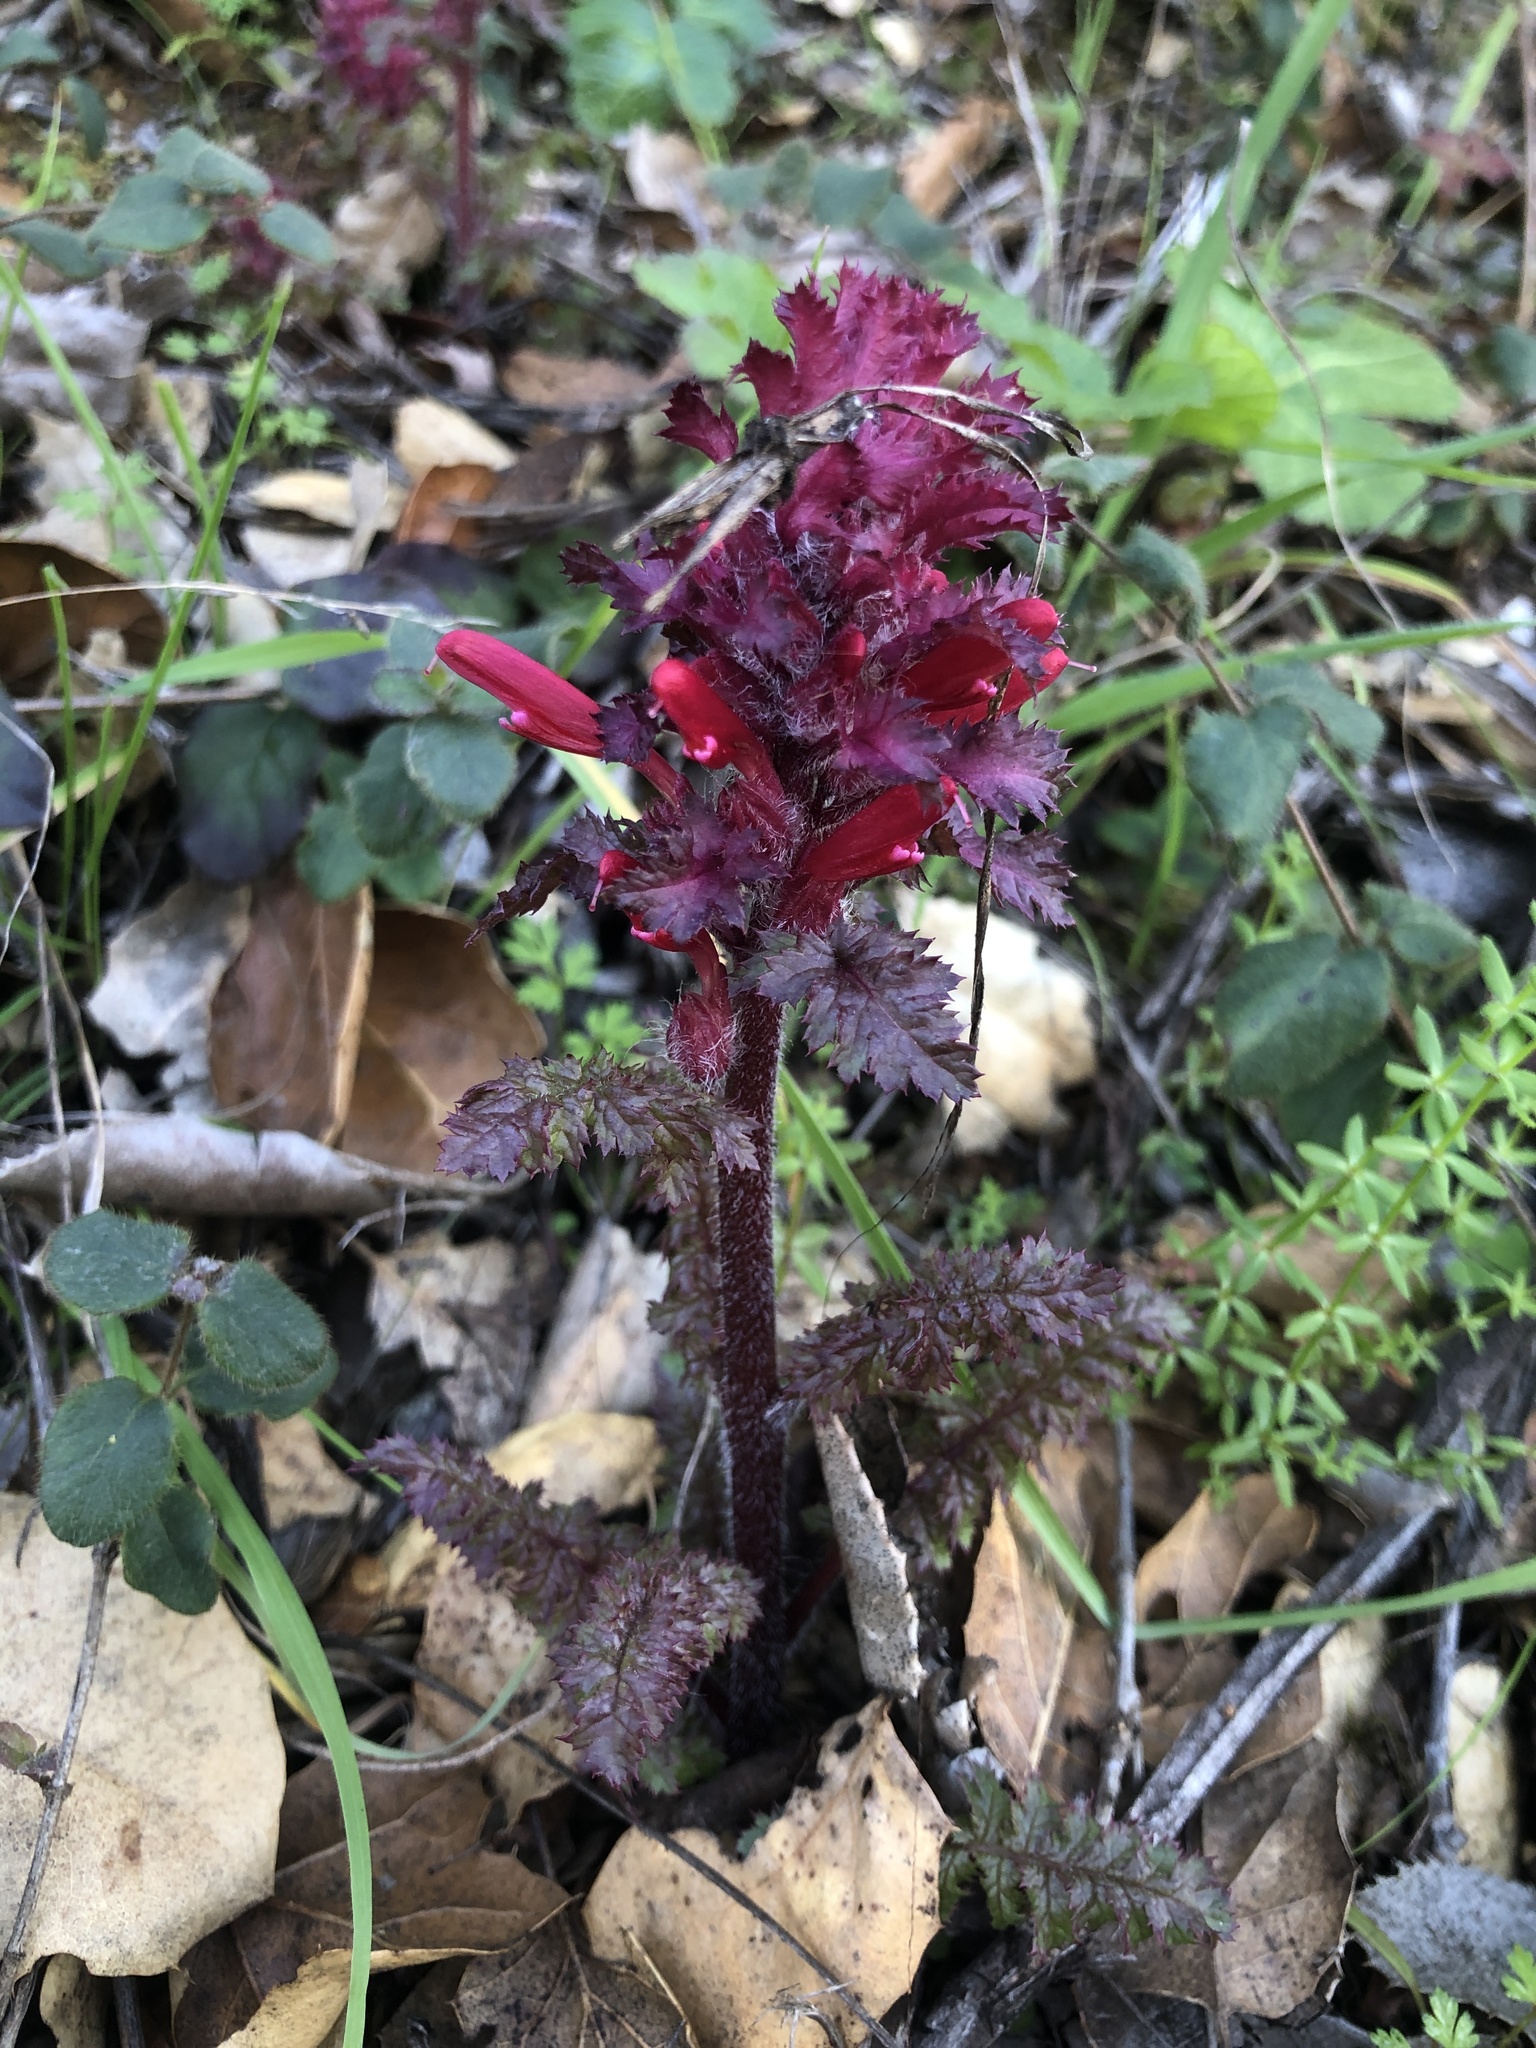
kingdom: Plantae
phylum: Tracheophyta
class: Magnoliopsida
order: Lamiales
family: Orobanchaceae
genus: Pedicularis
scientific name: Pedicularis densiflora
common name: Indian warrior
